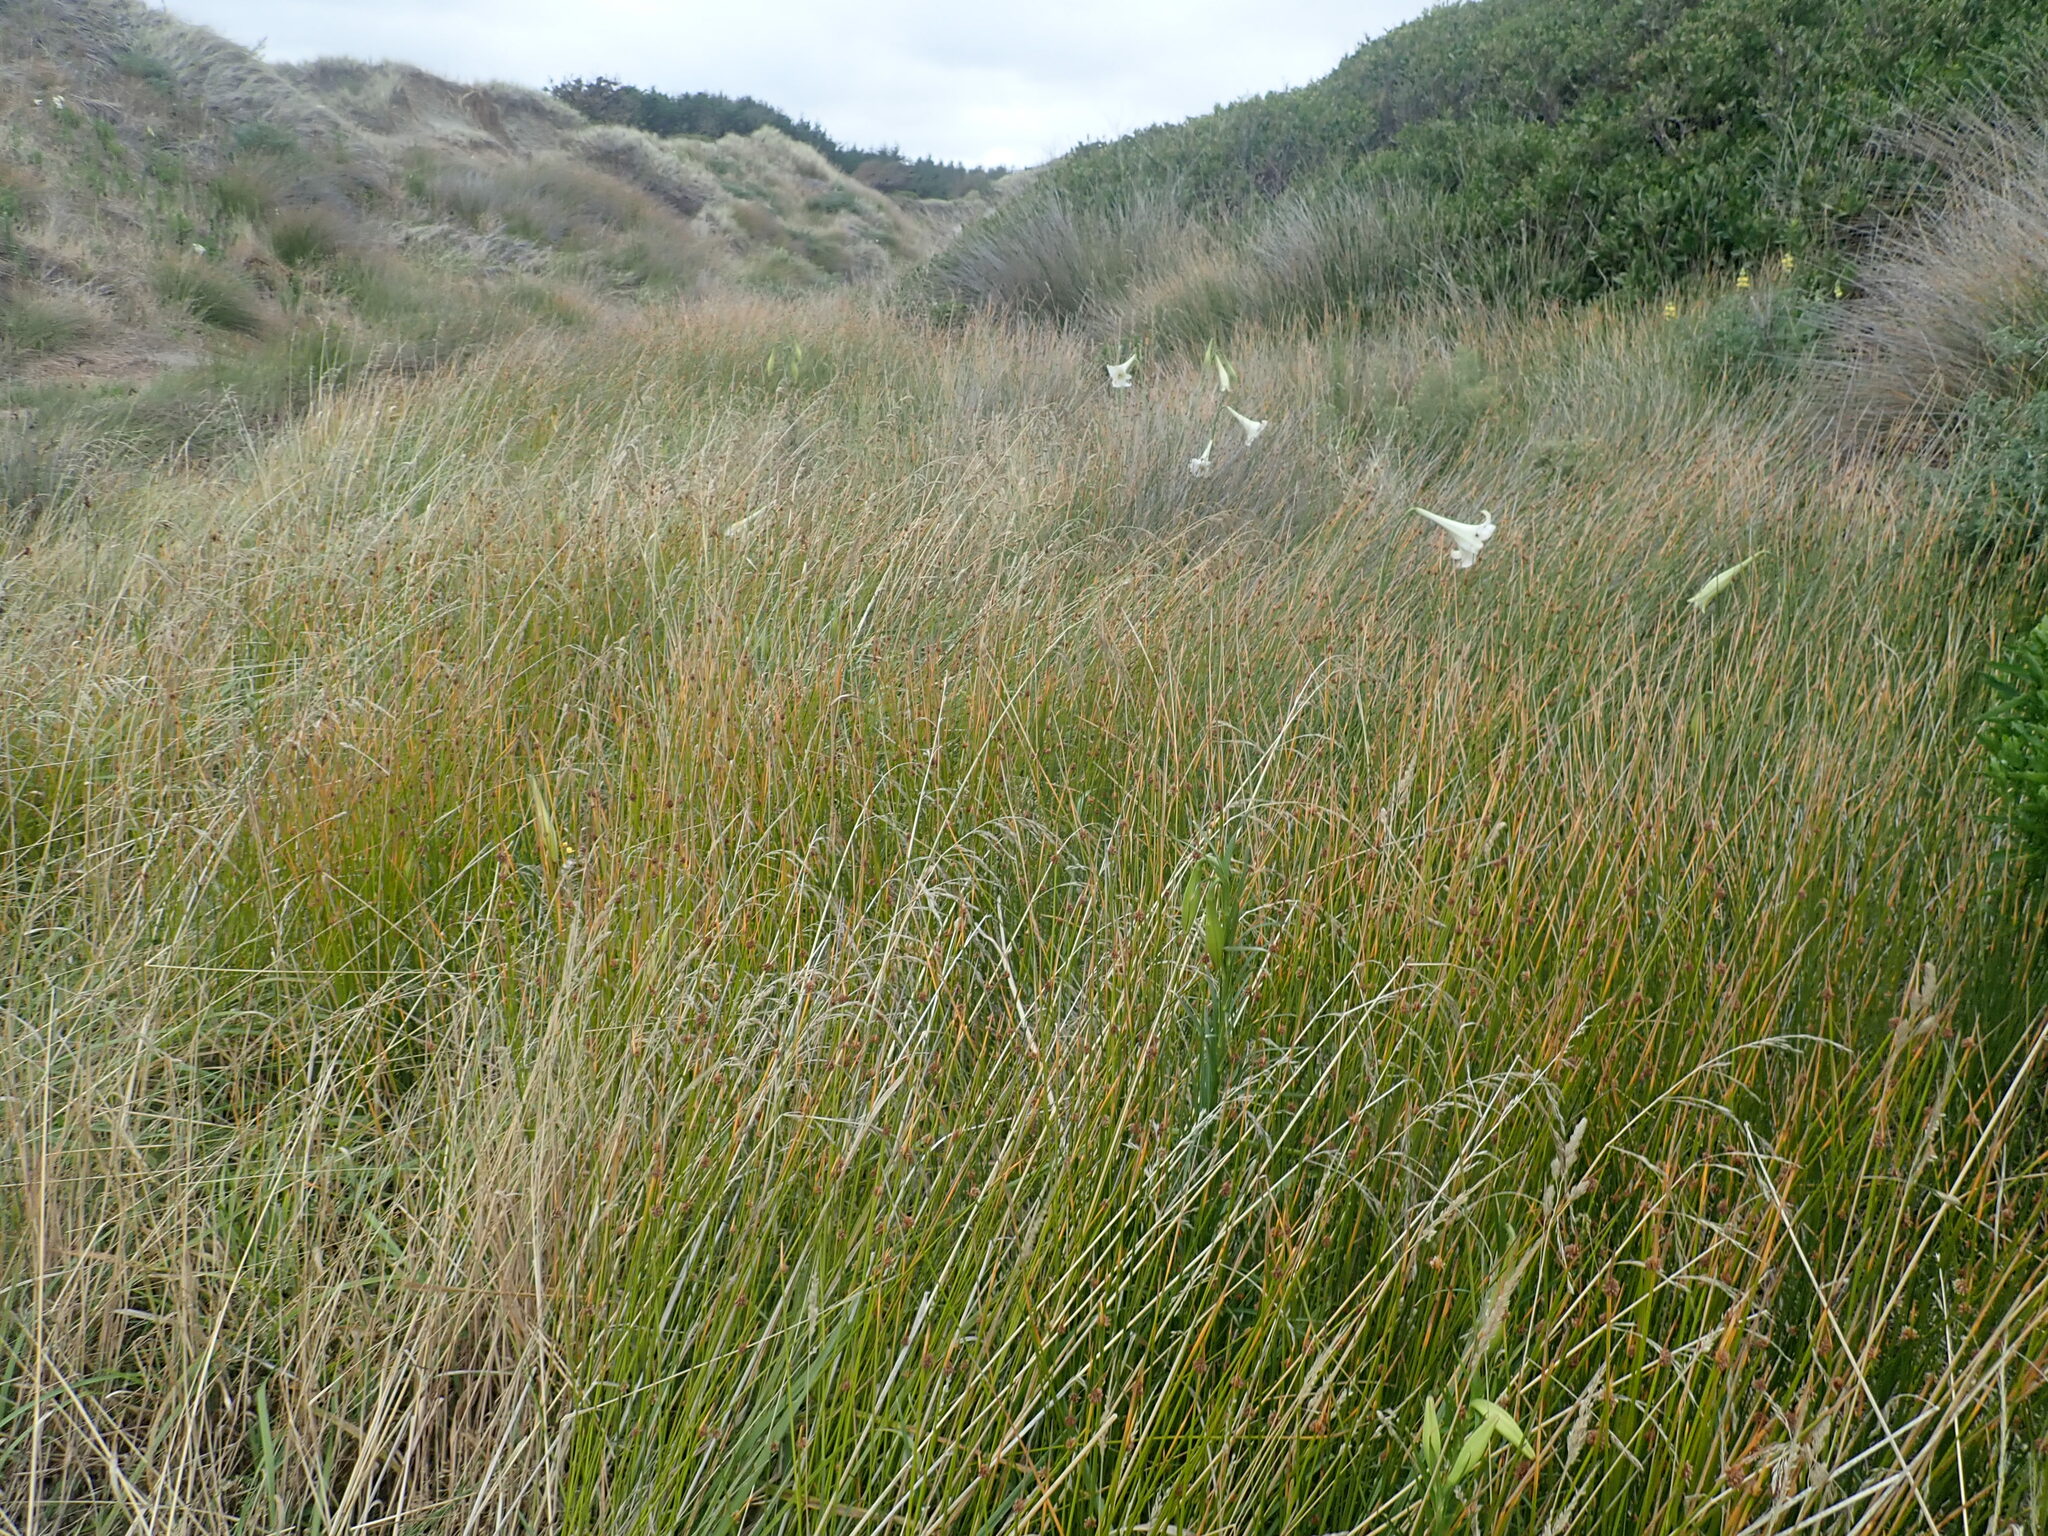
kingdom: Plantae
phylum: Tracheophyta
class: Liliopsida
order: Liliales
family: Liliaceae
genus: Lilium
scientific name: Lilium formosanum
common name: Formosa lily
